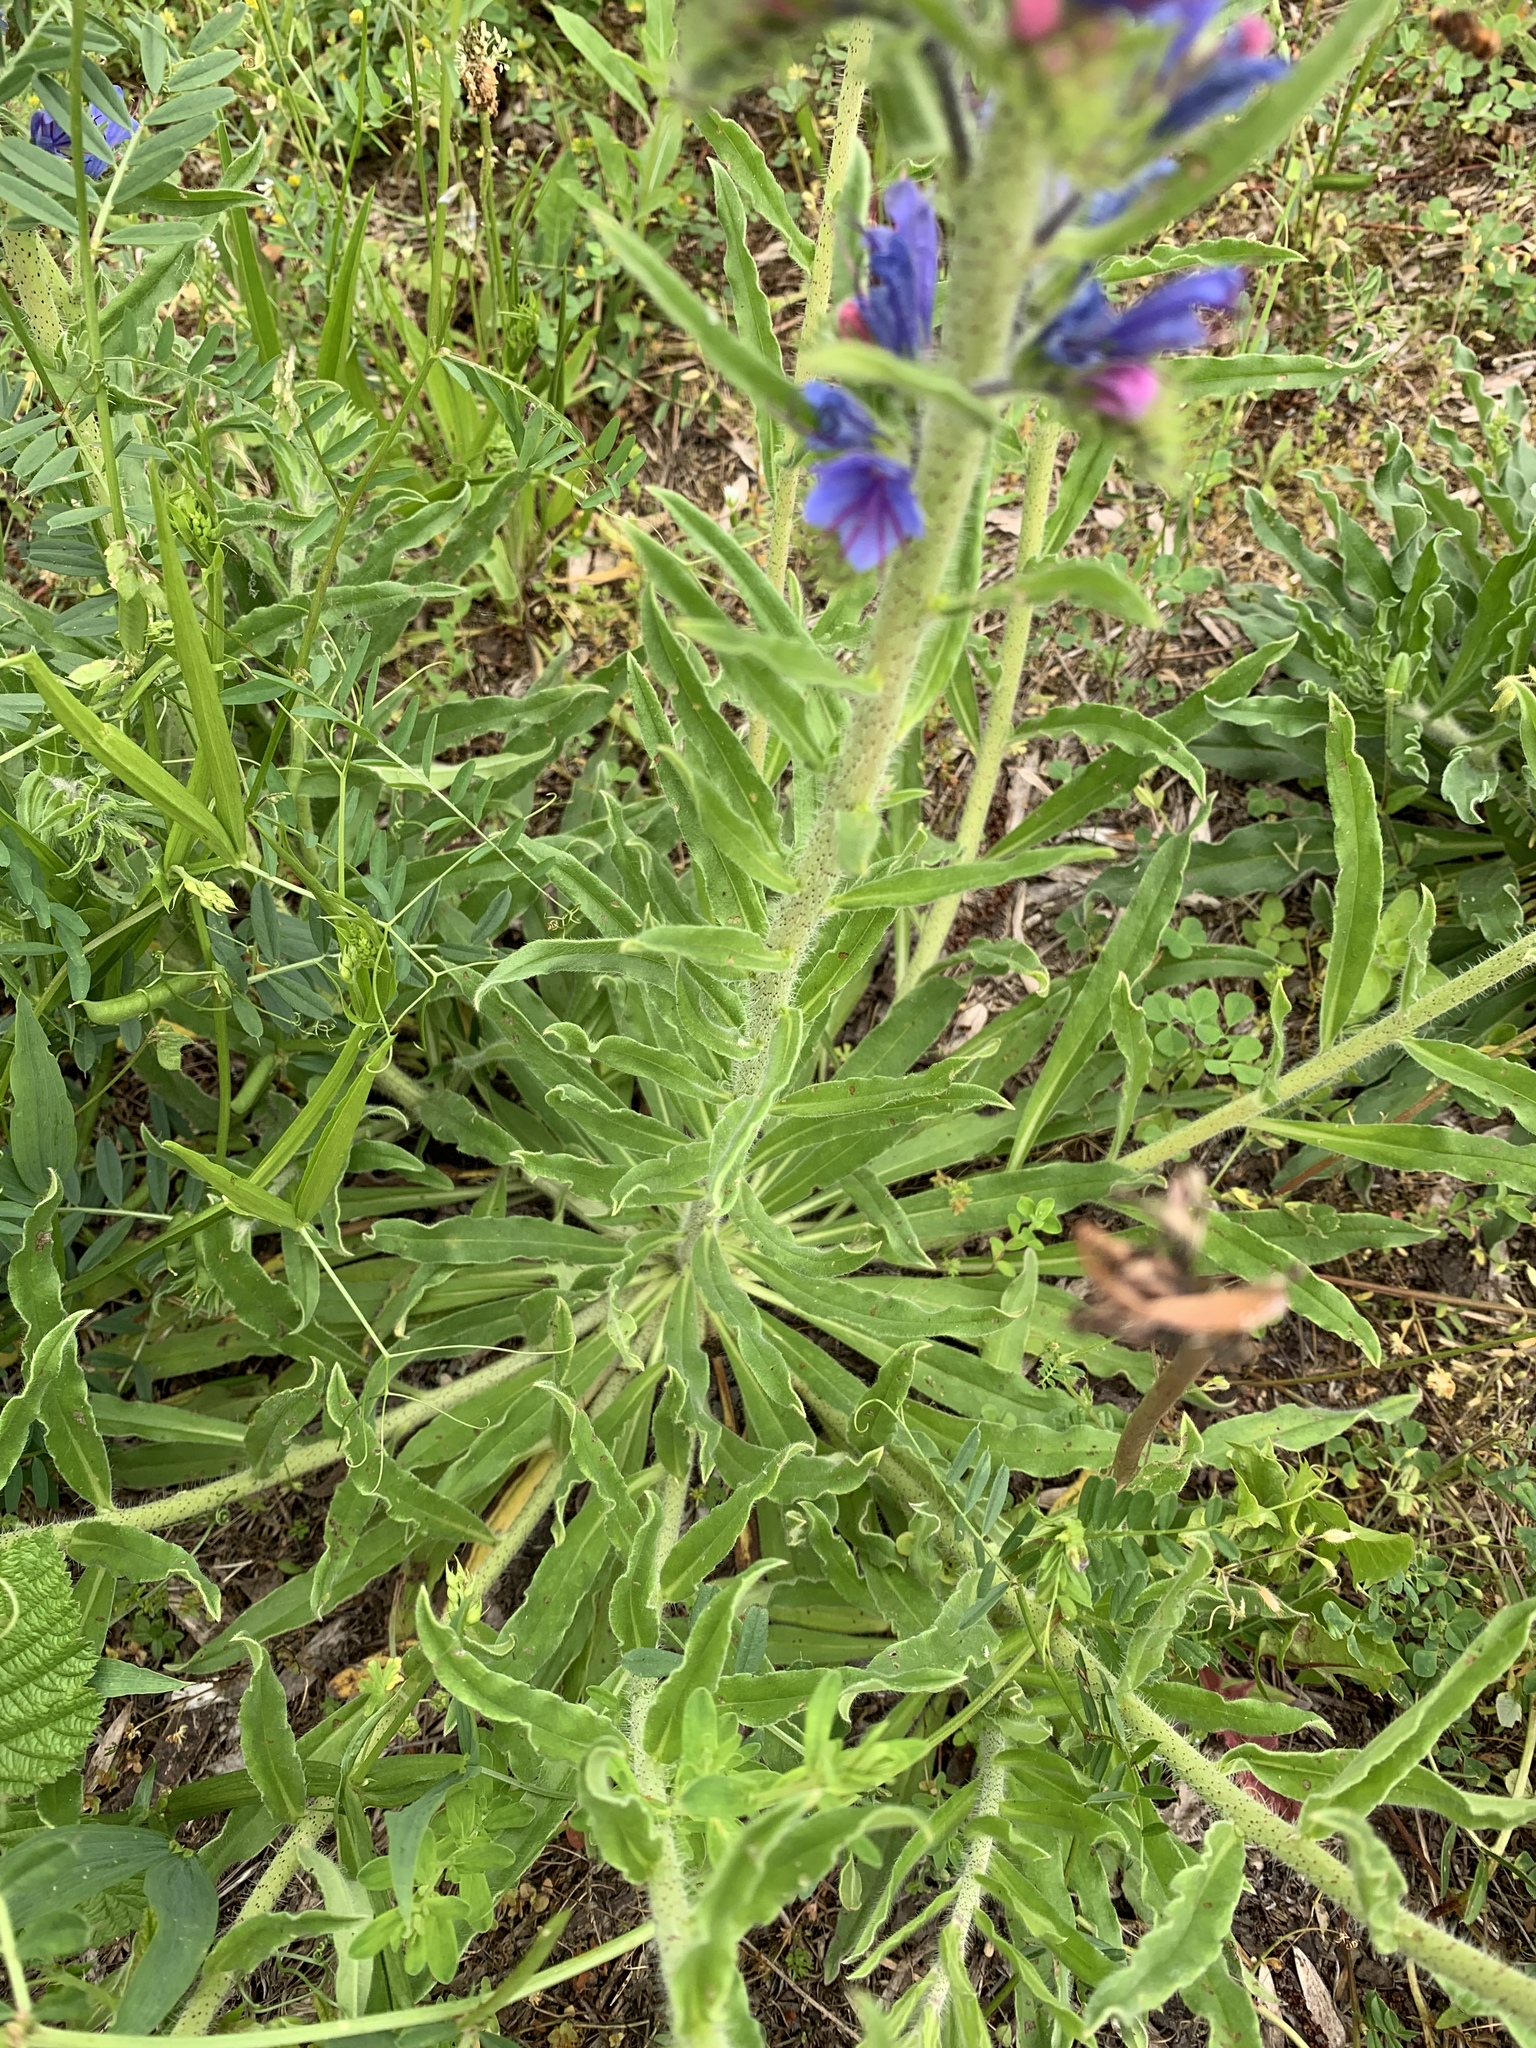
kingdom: Plantae
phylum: Tracheophyta
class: Magnoliopsida
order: Boraginales
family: Boraginaceae
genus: Echium
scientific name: Echium vulgare
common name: Common viper's bugloss
